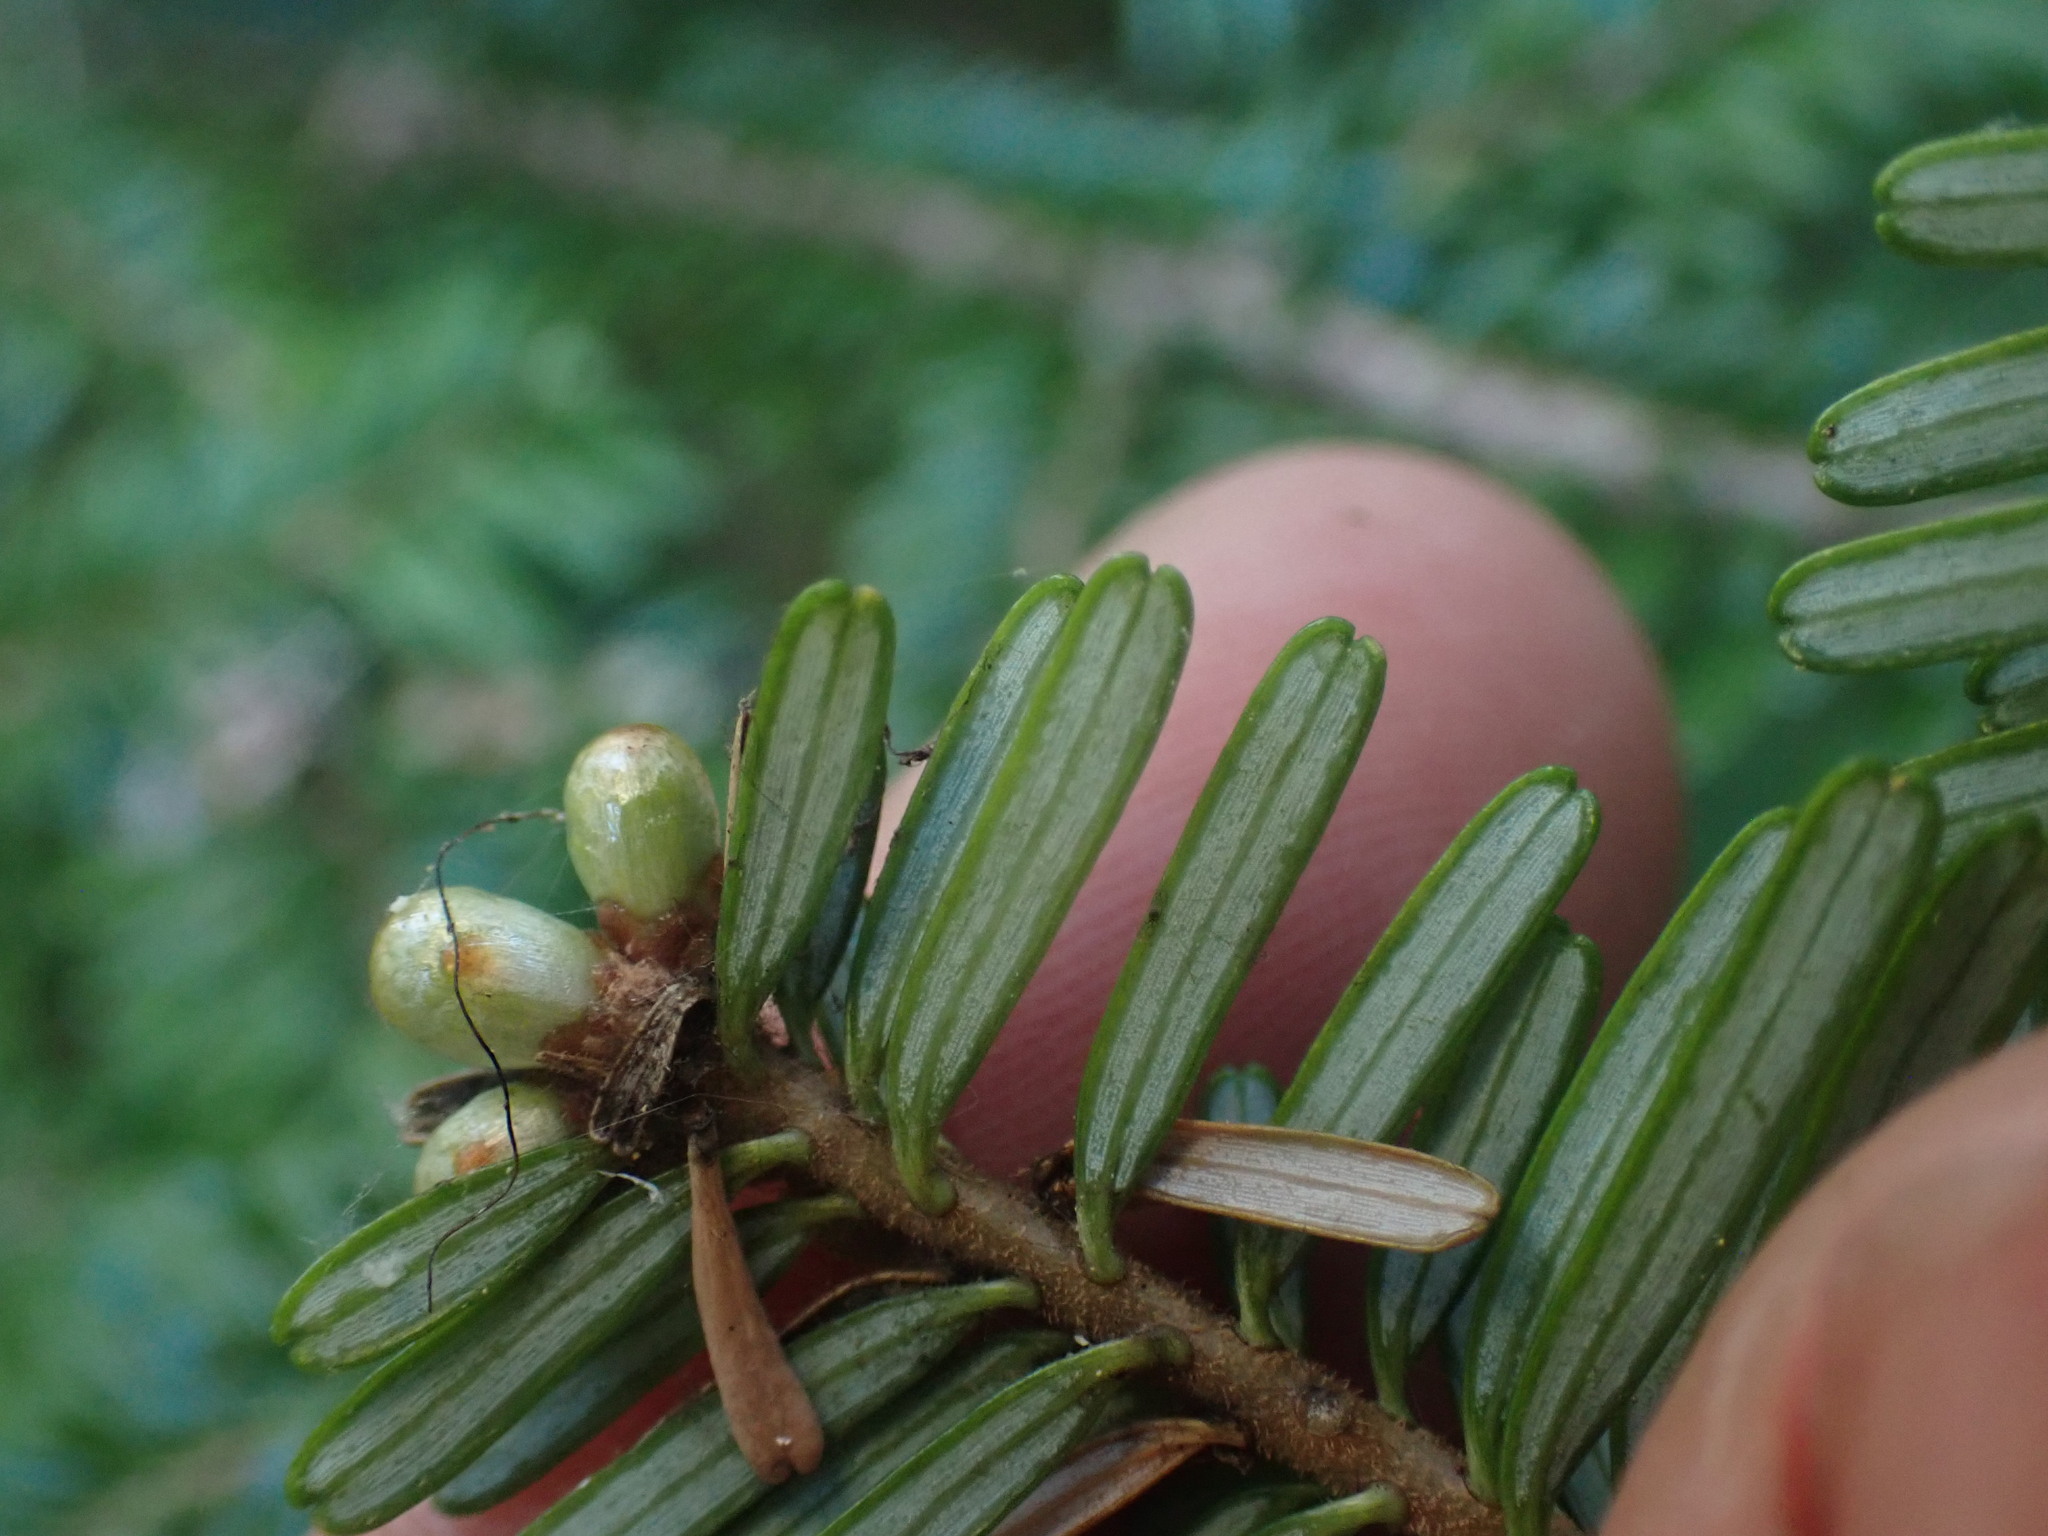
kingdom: Plantae
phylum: Tracheophyta
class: Pinopsida
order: Pinales
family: Pinaceae
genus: Abies
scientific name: Abies amabilis
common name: Pacific silver fir
